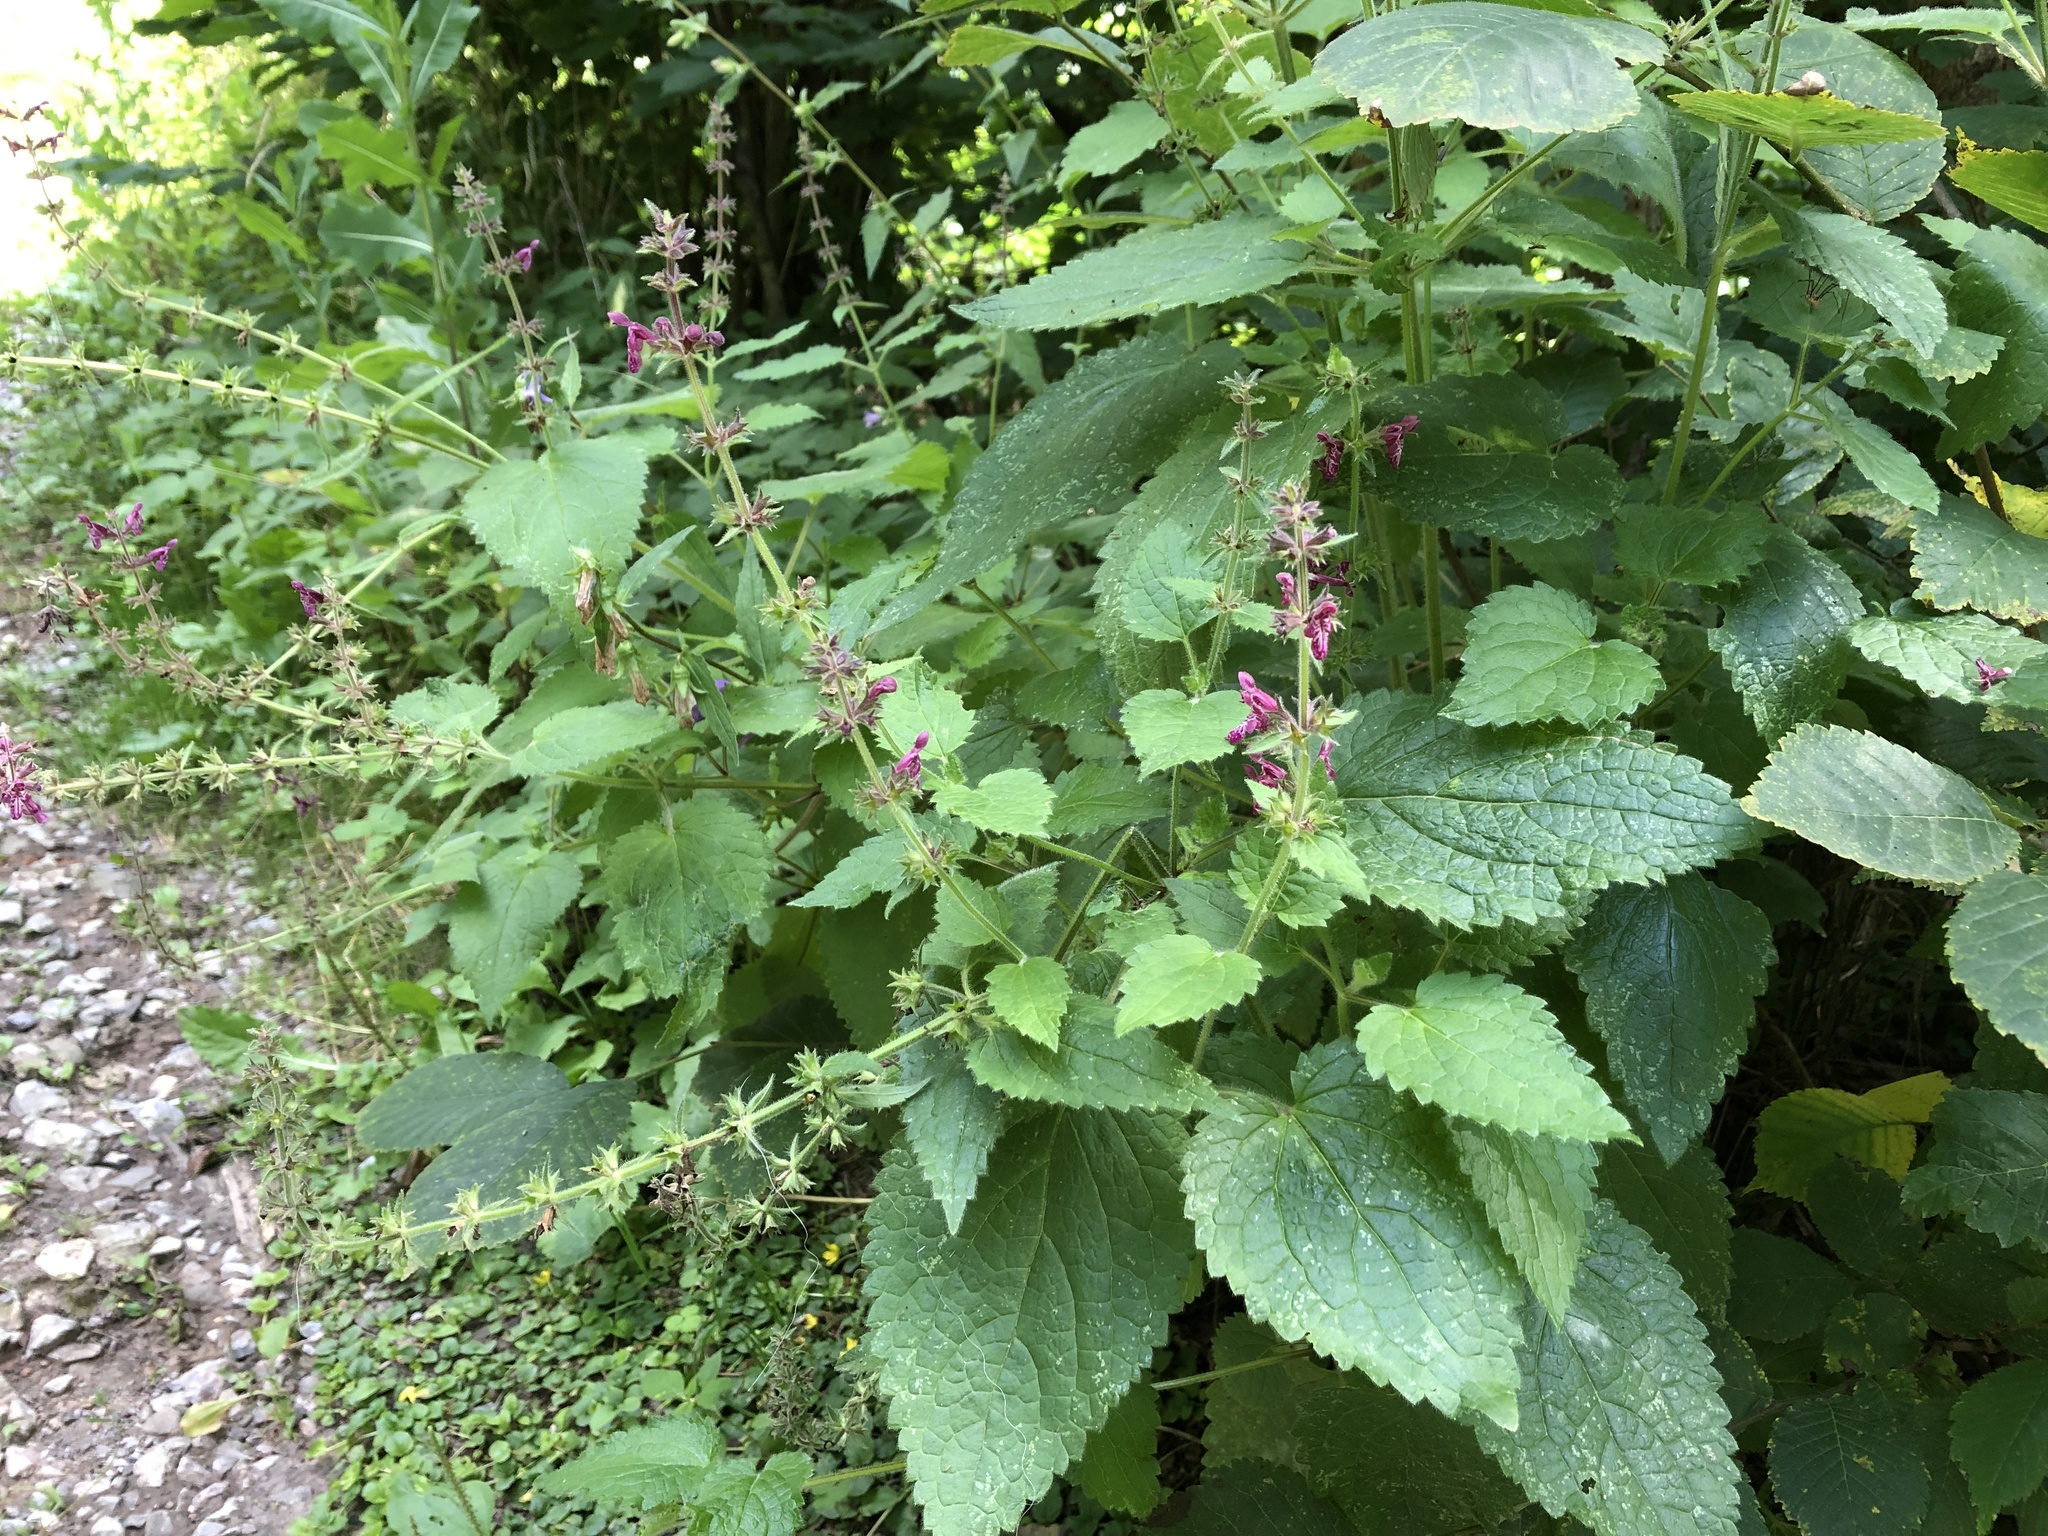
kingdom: Plantae
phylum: Tracheophyta
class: Magnoliopsida
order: Lamiales
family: Lamiaceae
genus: Stachys
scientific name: Stachys sylvatica
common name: Hedge woundwort
